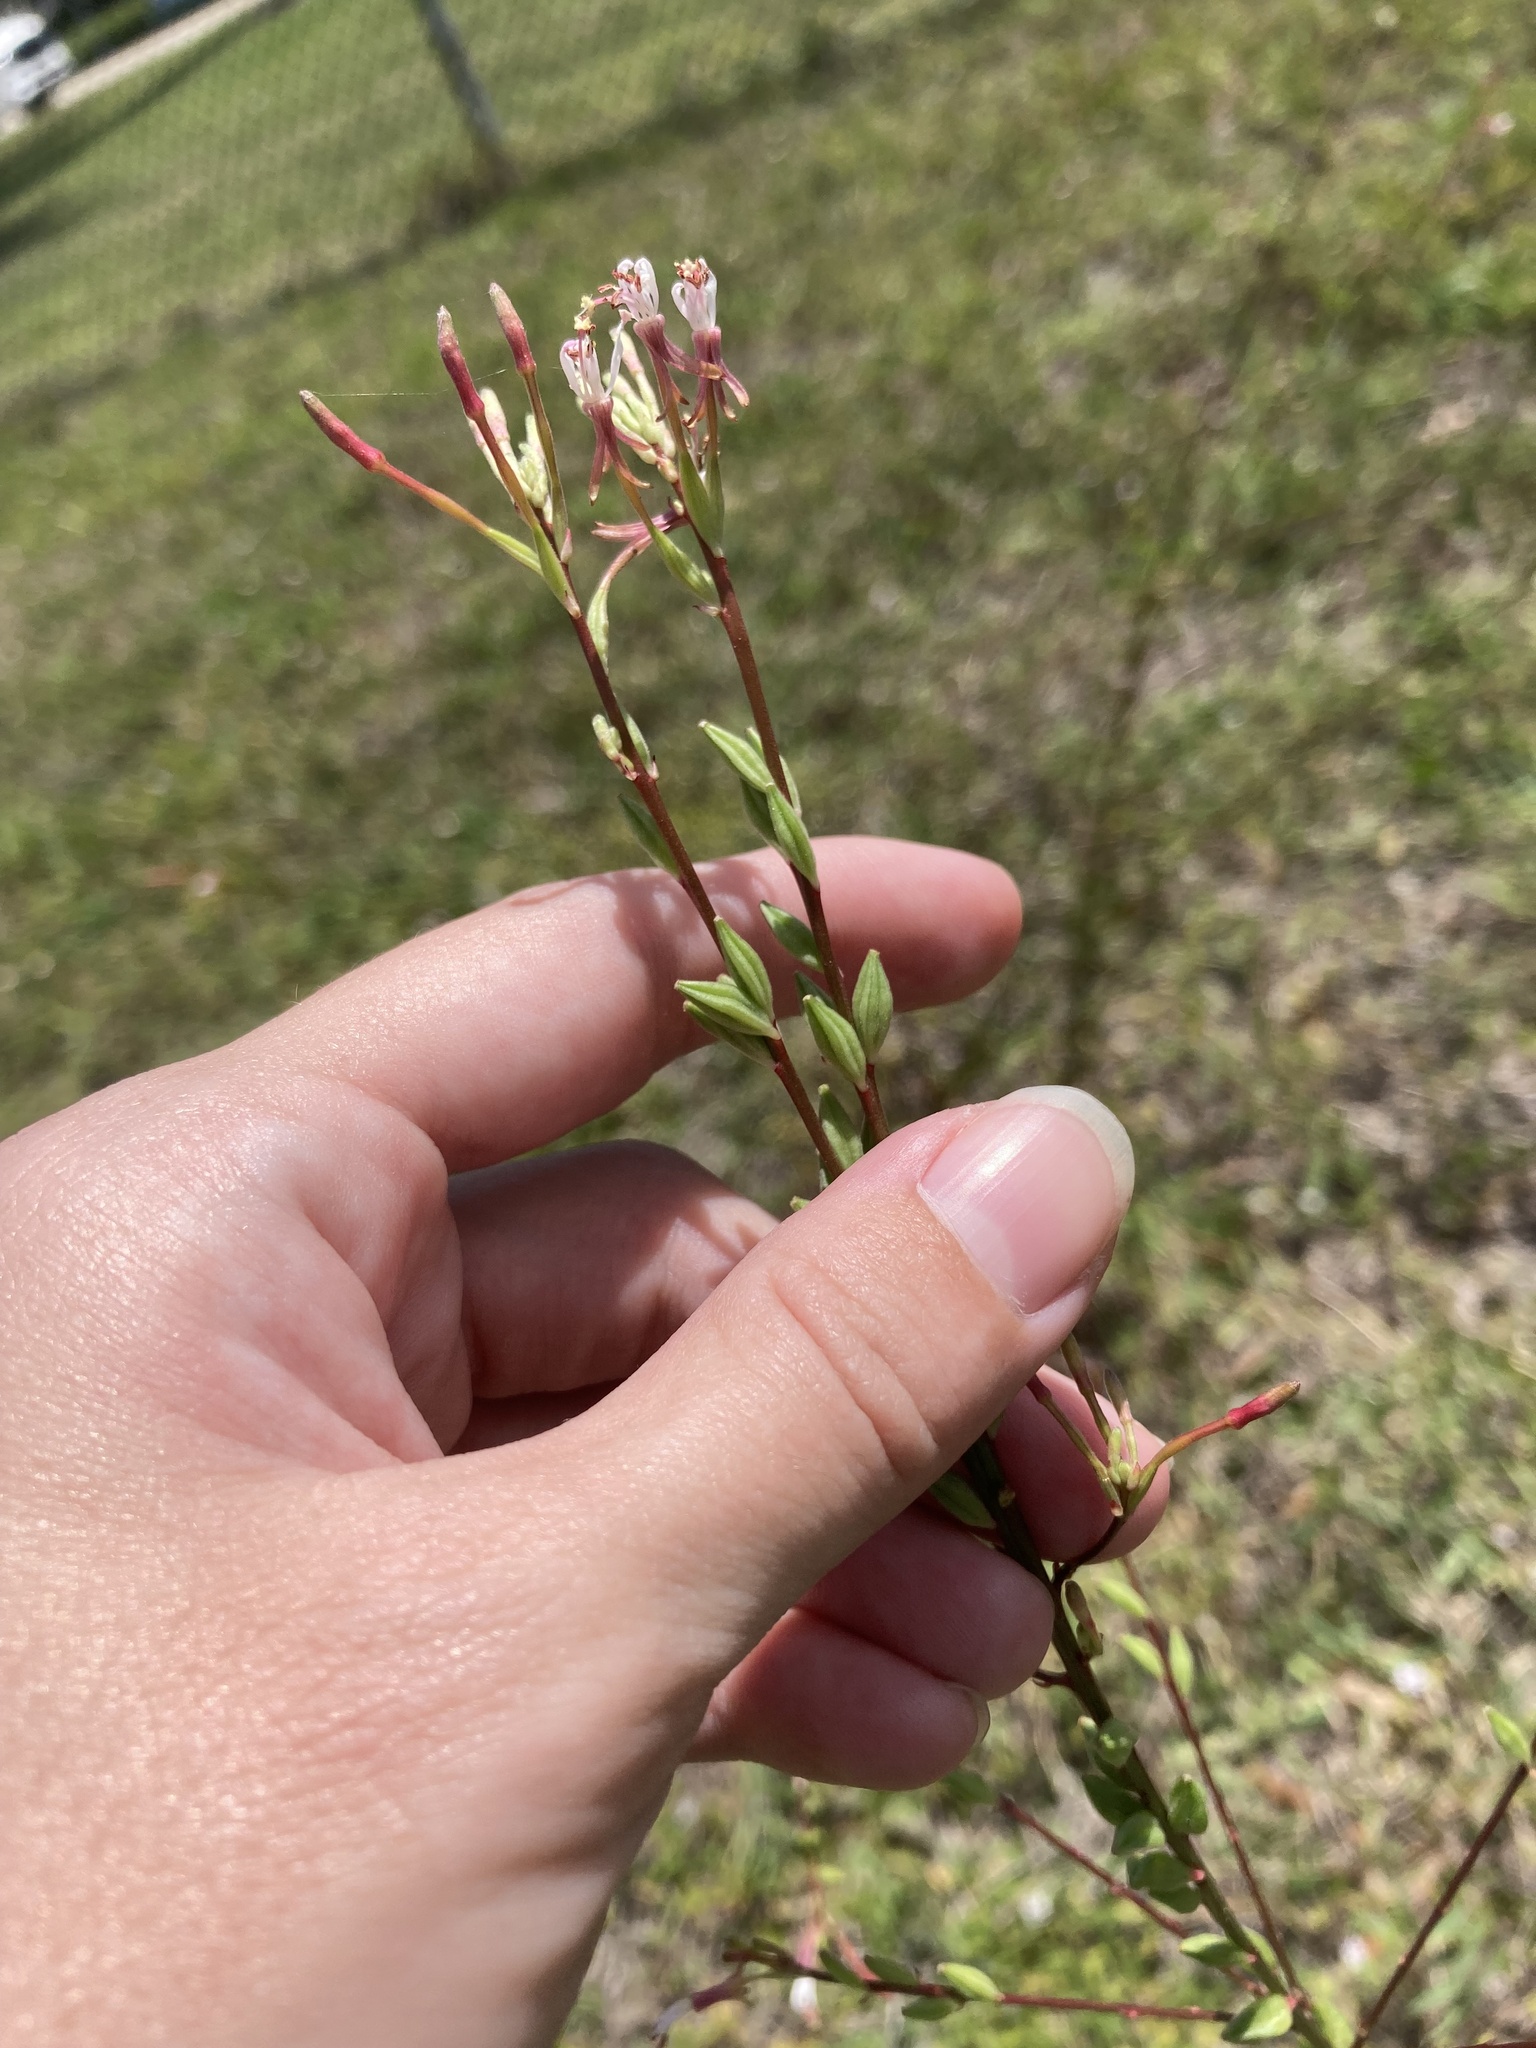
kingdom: Plantae
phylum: Tracheophyta
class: Magnoliopsida
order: Myrtales
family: Onagraceae
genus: Oenothera
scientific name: Oenothera simulans
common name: Southern beeblossom
